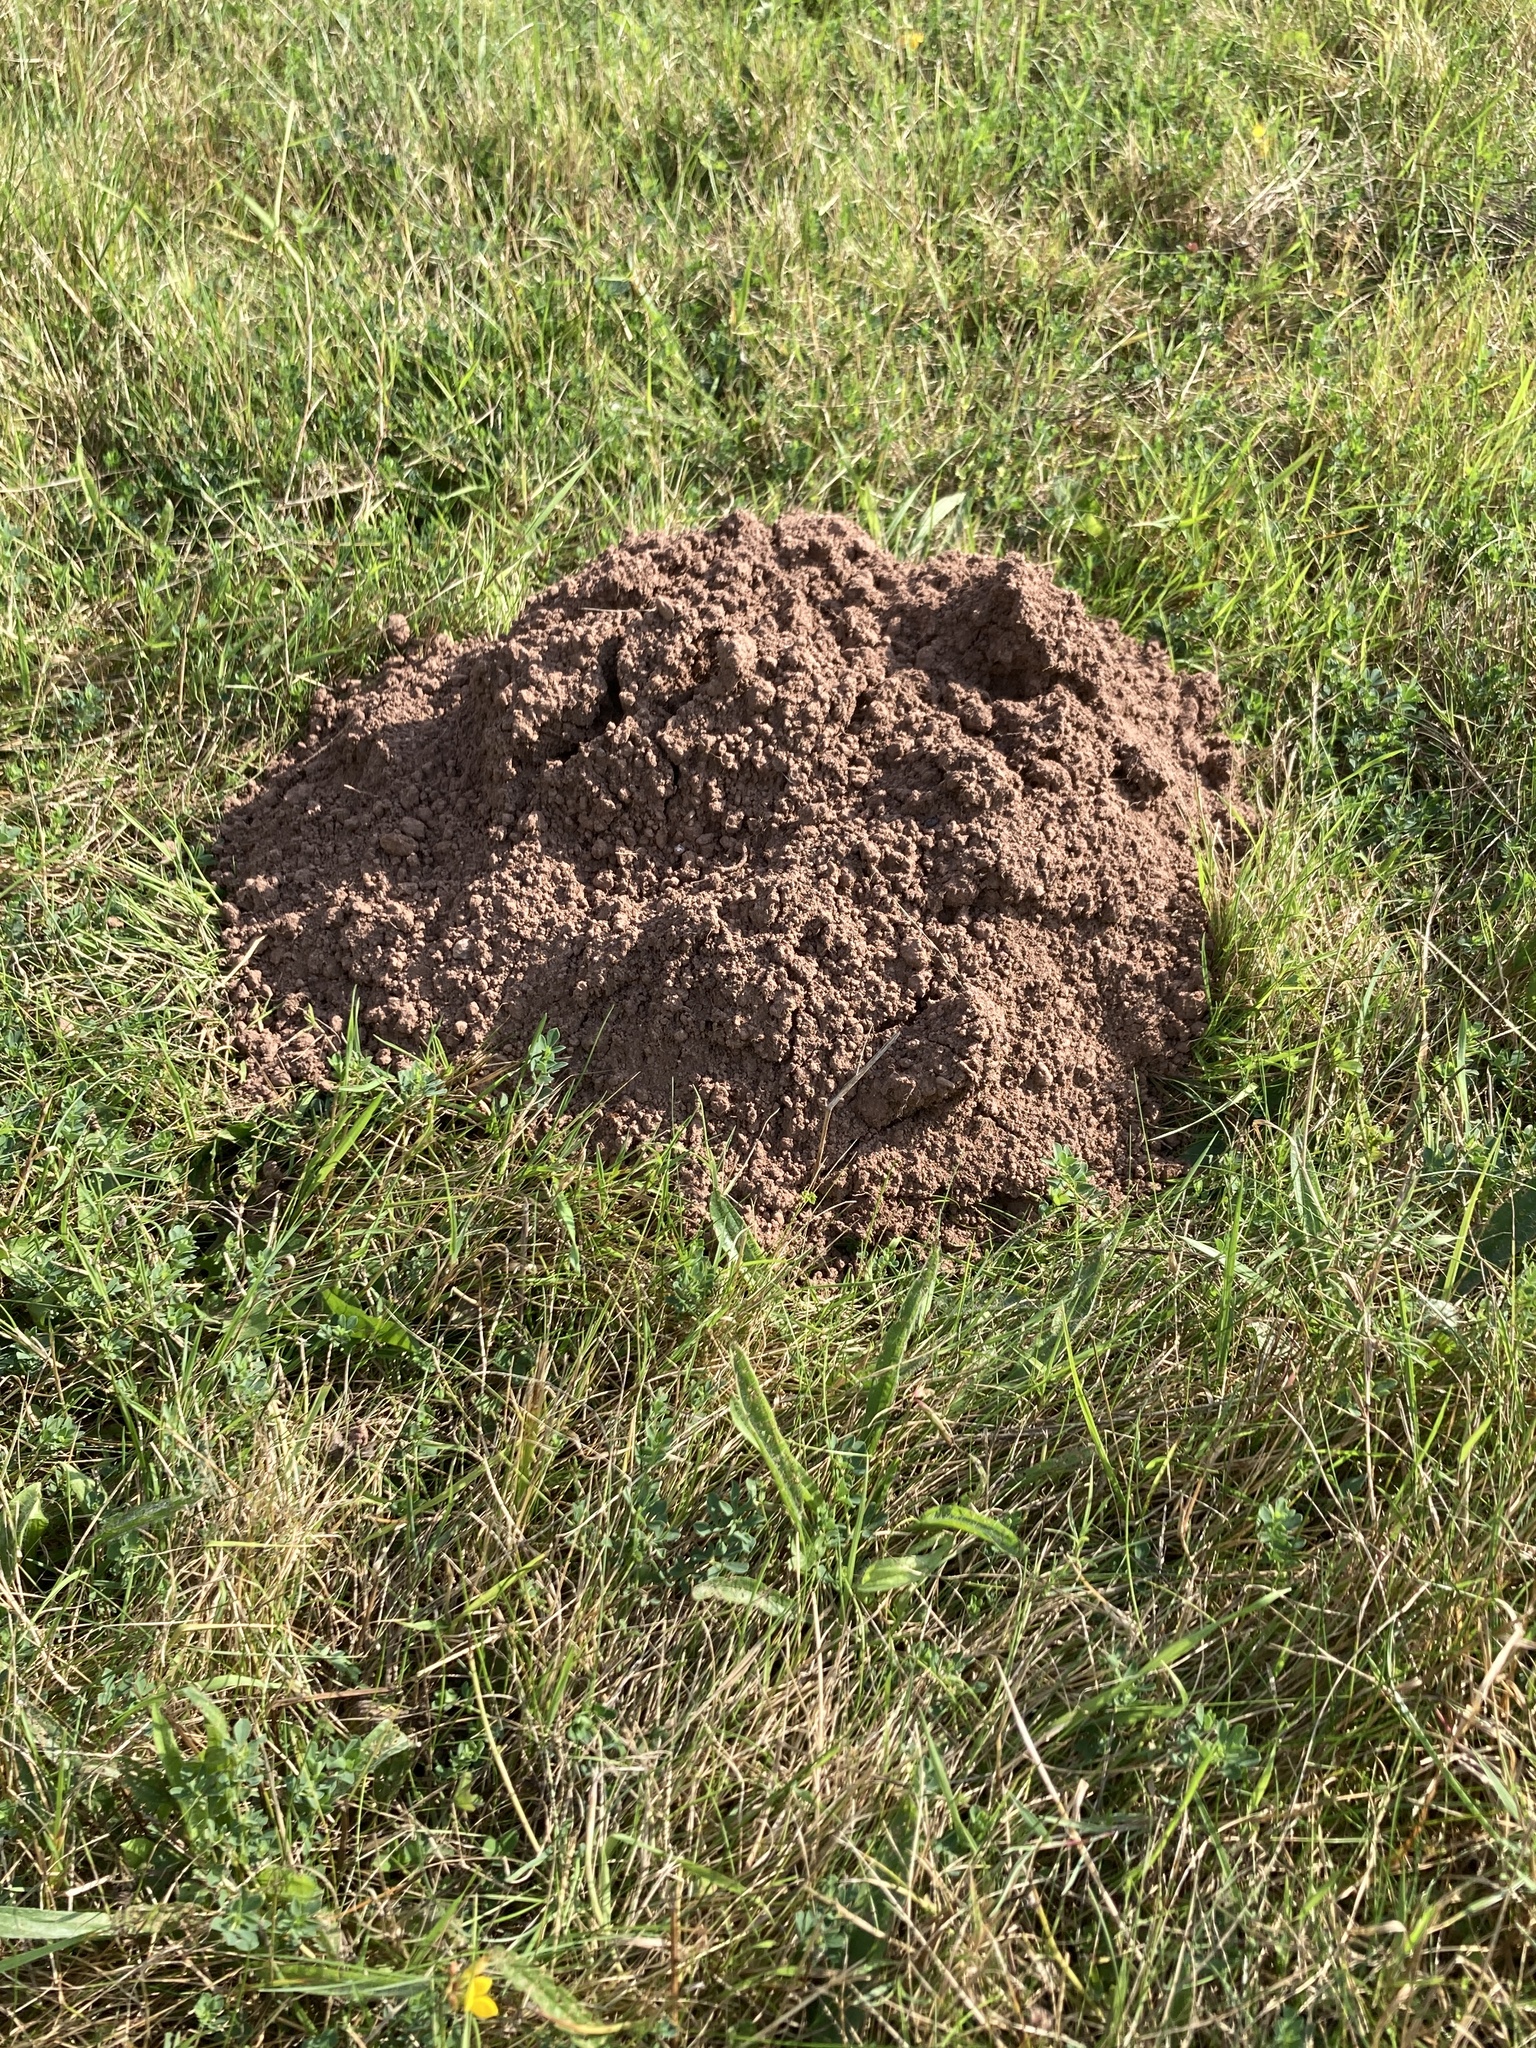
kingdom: Animalia
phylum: Chordata
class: Mammalia
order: Soricomorpha
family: Talpidae
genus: Talpa
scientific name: Talpa europaea
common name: European mole
